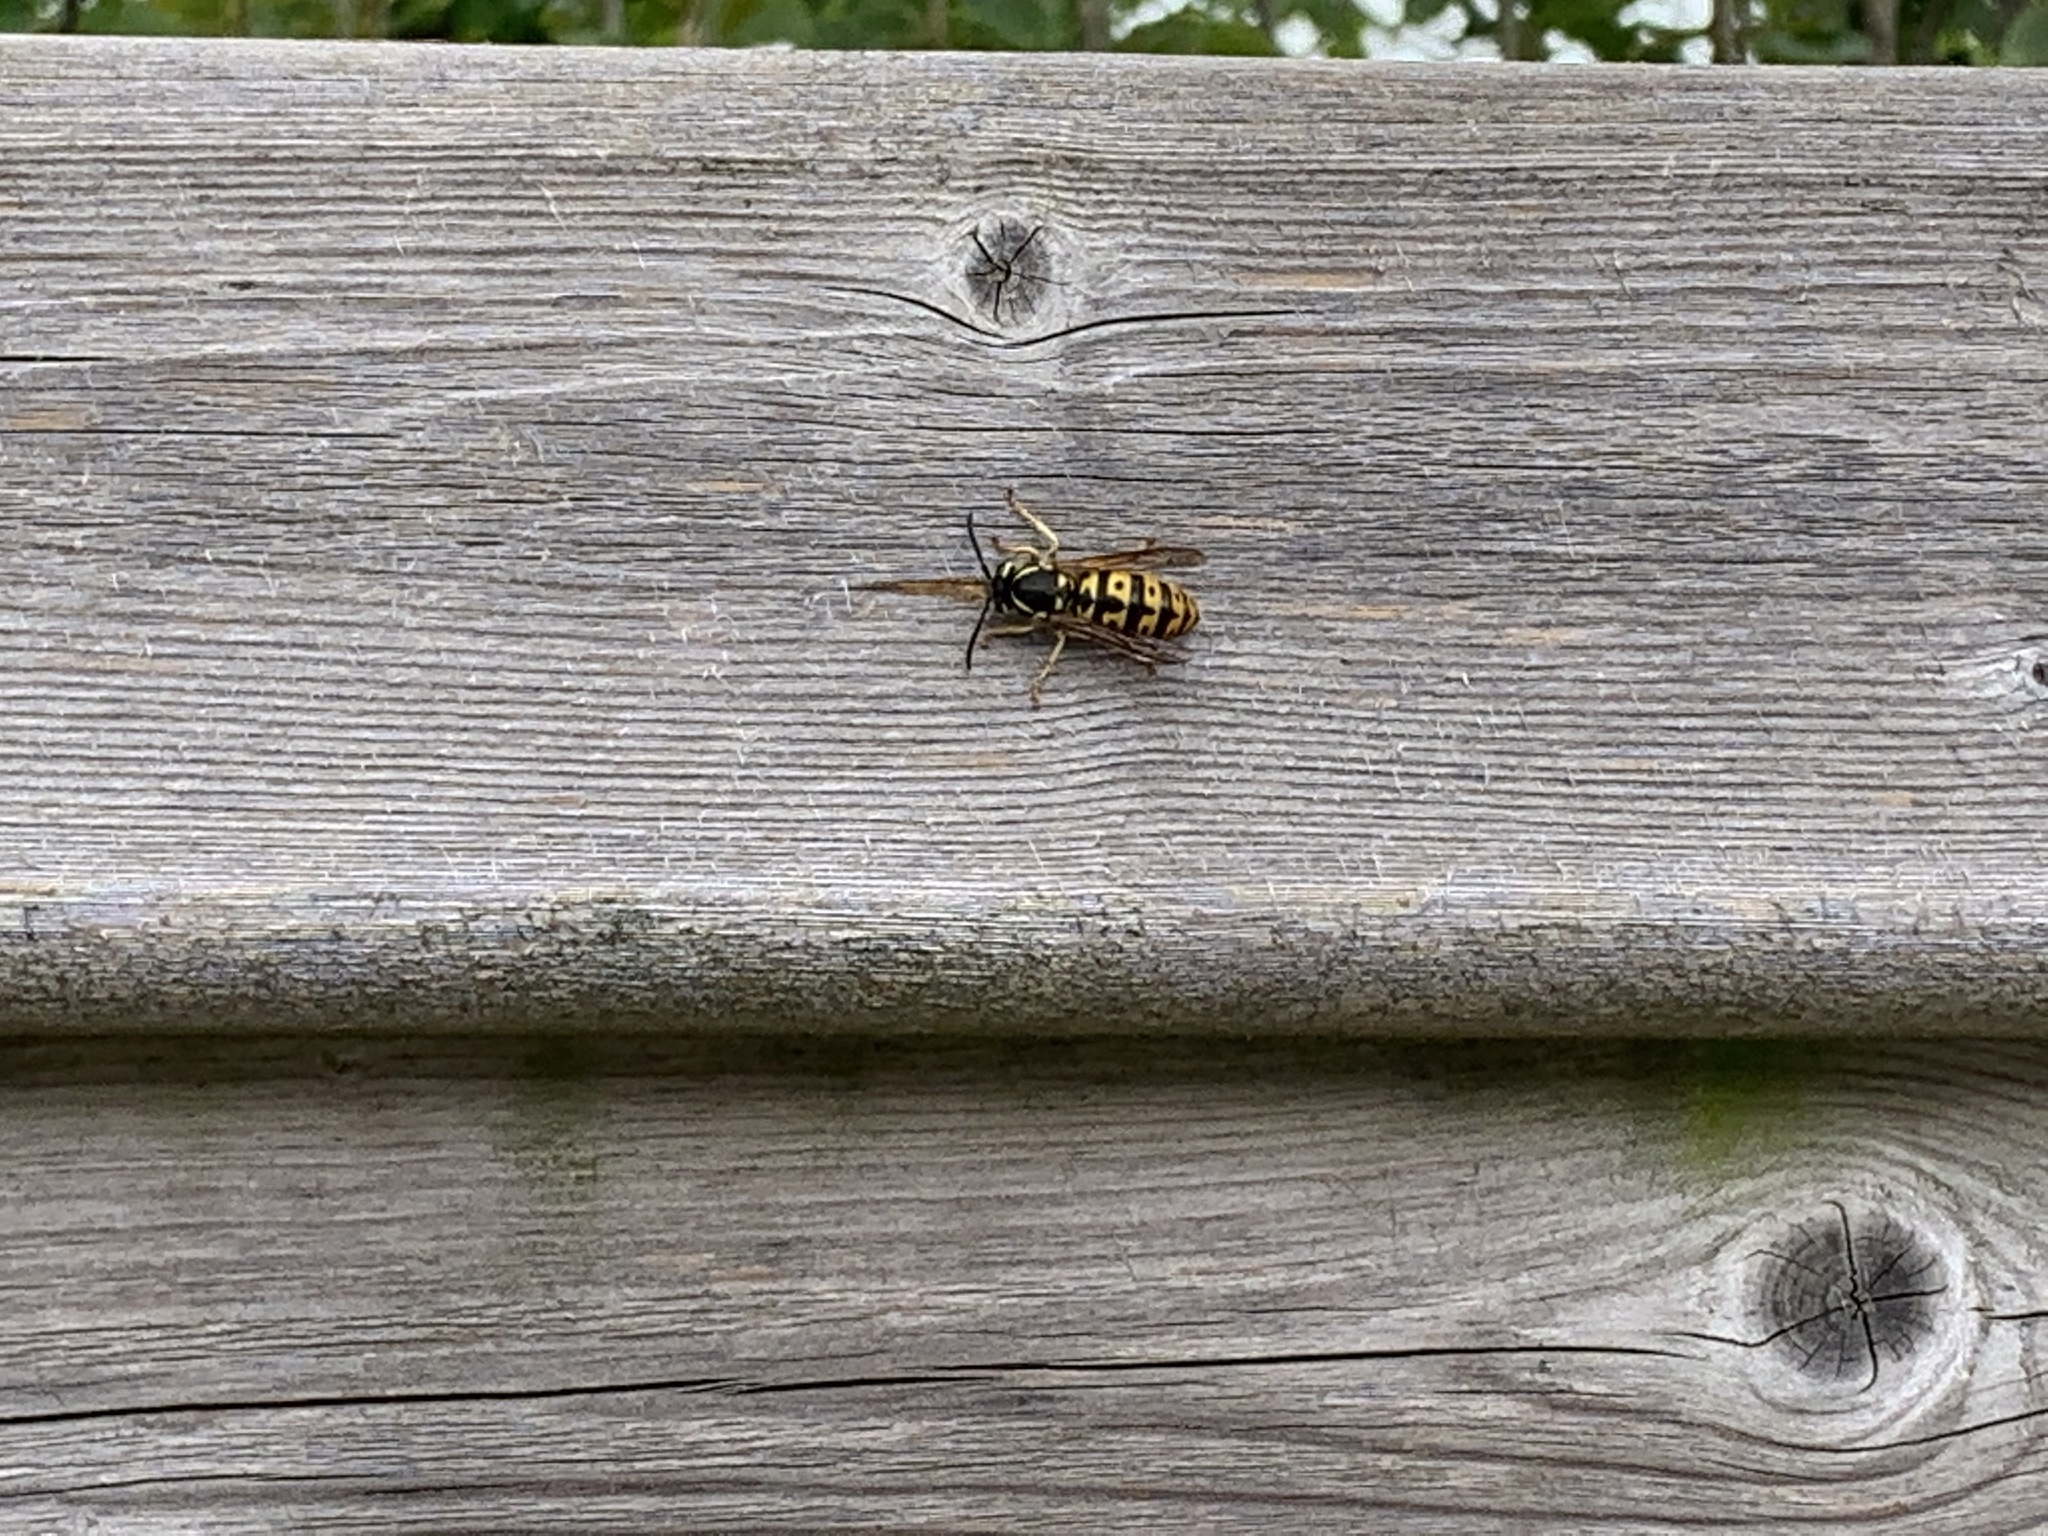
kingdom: Animalia
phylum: Arthropoda
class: Insecta
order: Hymenoptera
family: Vespidae
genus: Vespula
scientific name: Vespula germanica
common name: German wasp
